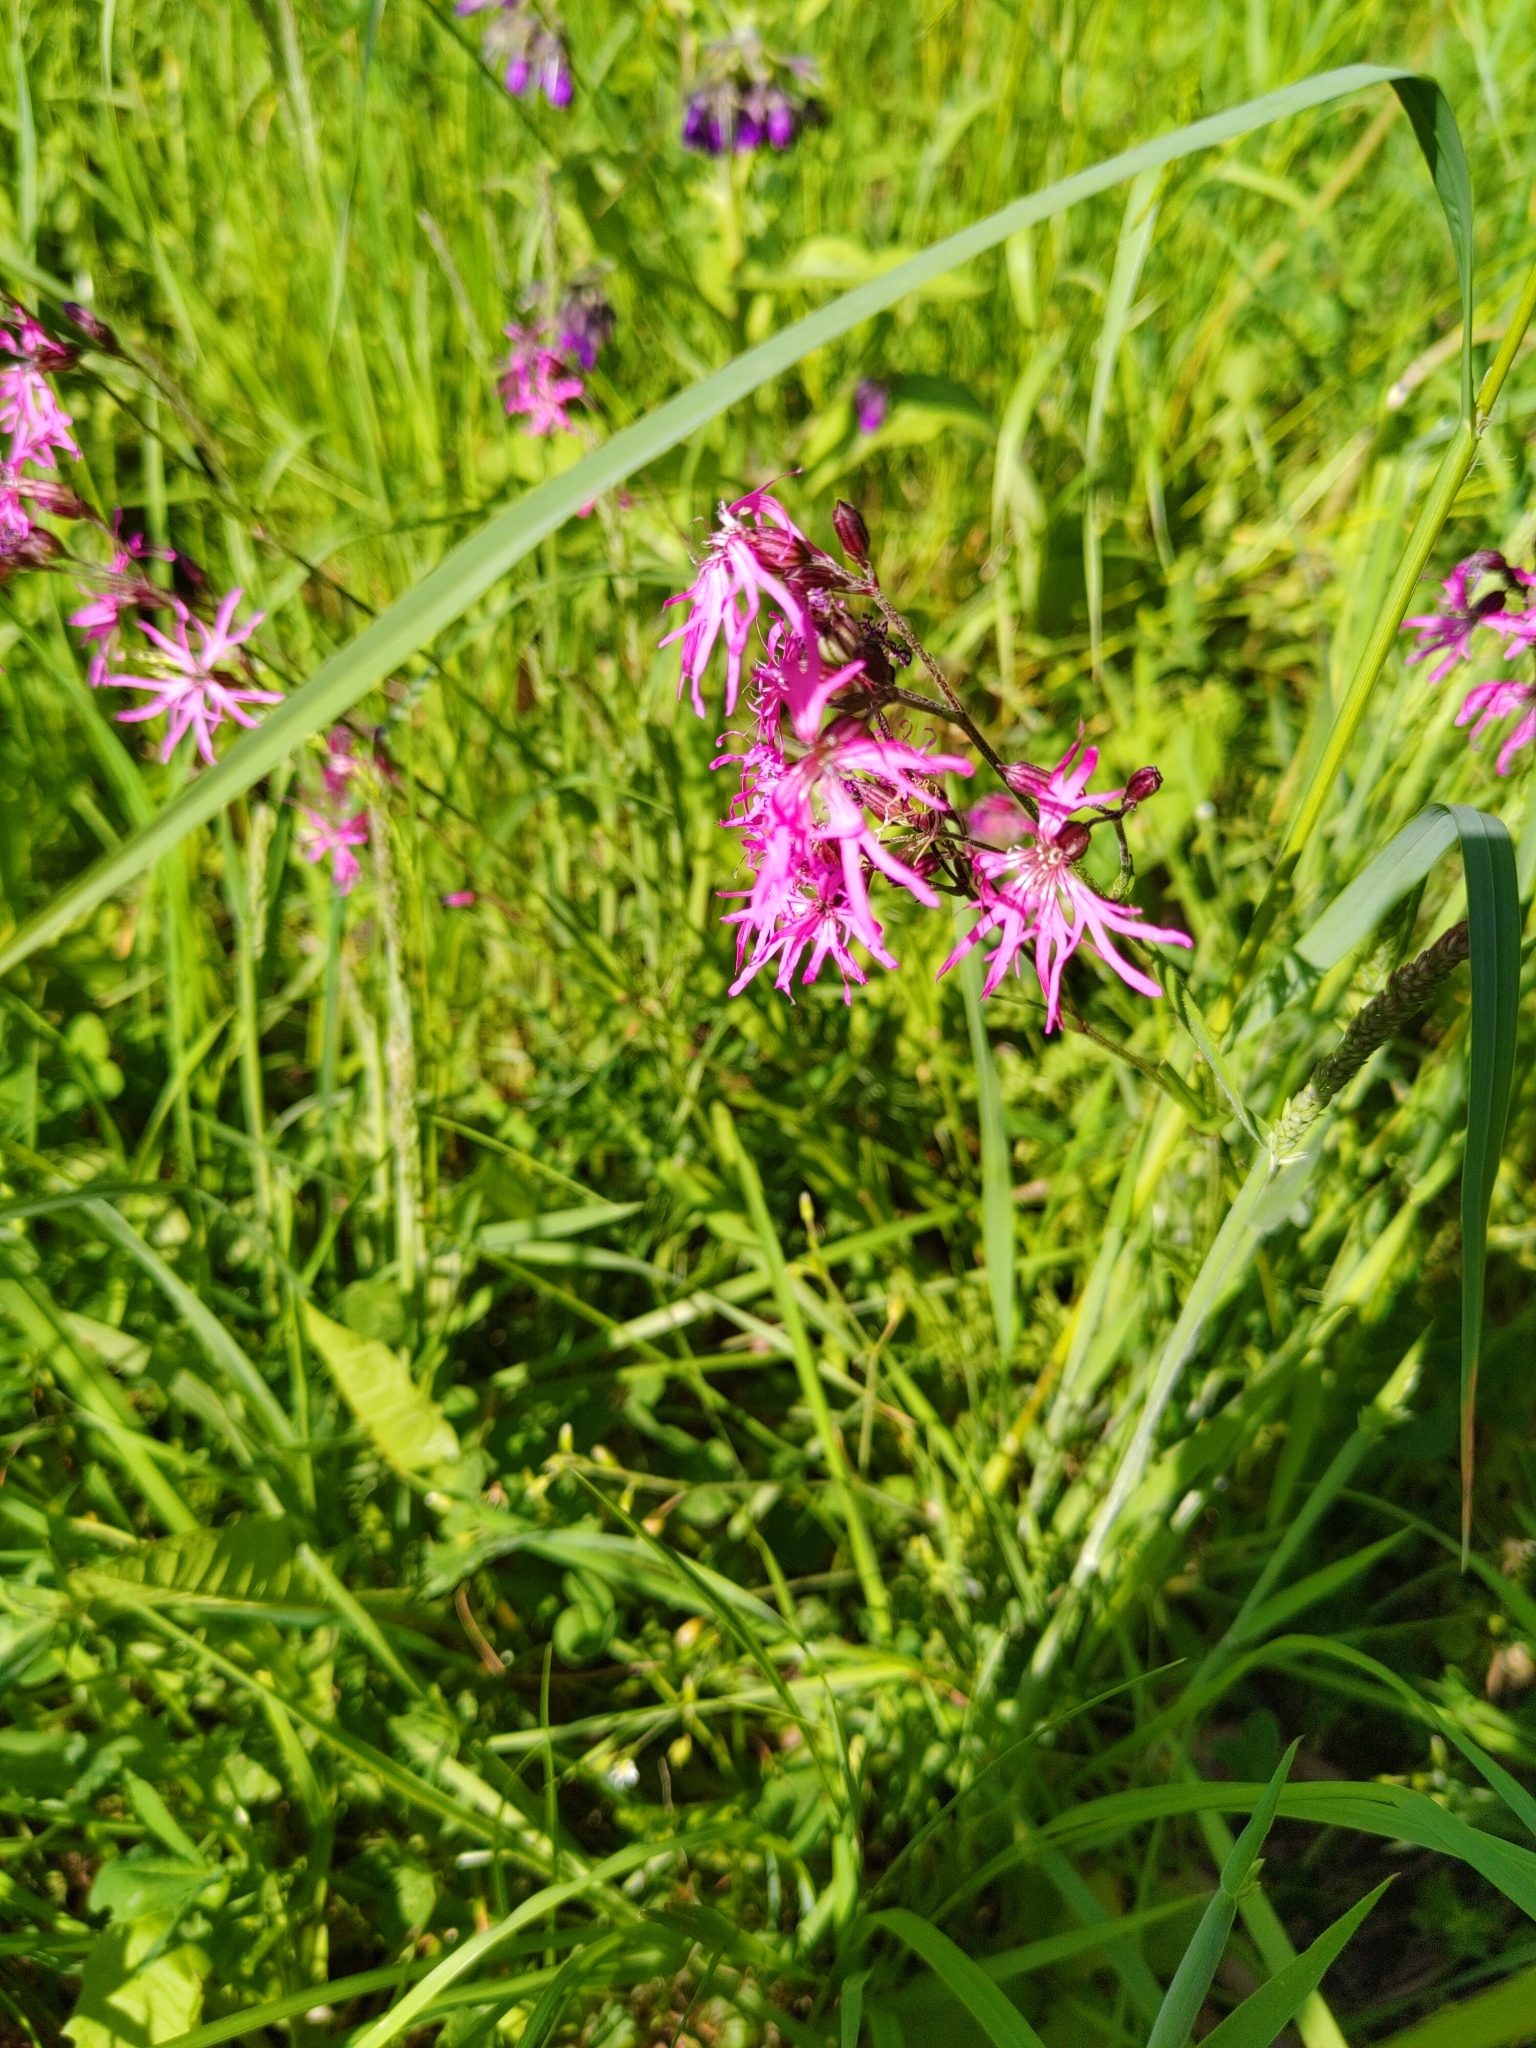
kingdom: Plantae
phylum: Tracheophyta
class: Magnoliopsida
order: Caryophyllales
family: Caryophyllaceae
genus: Silene
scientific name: Silene flos-cuculi
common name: Ragged-robin
